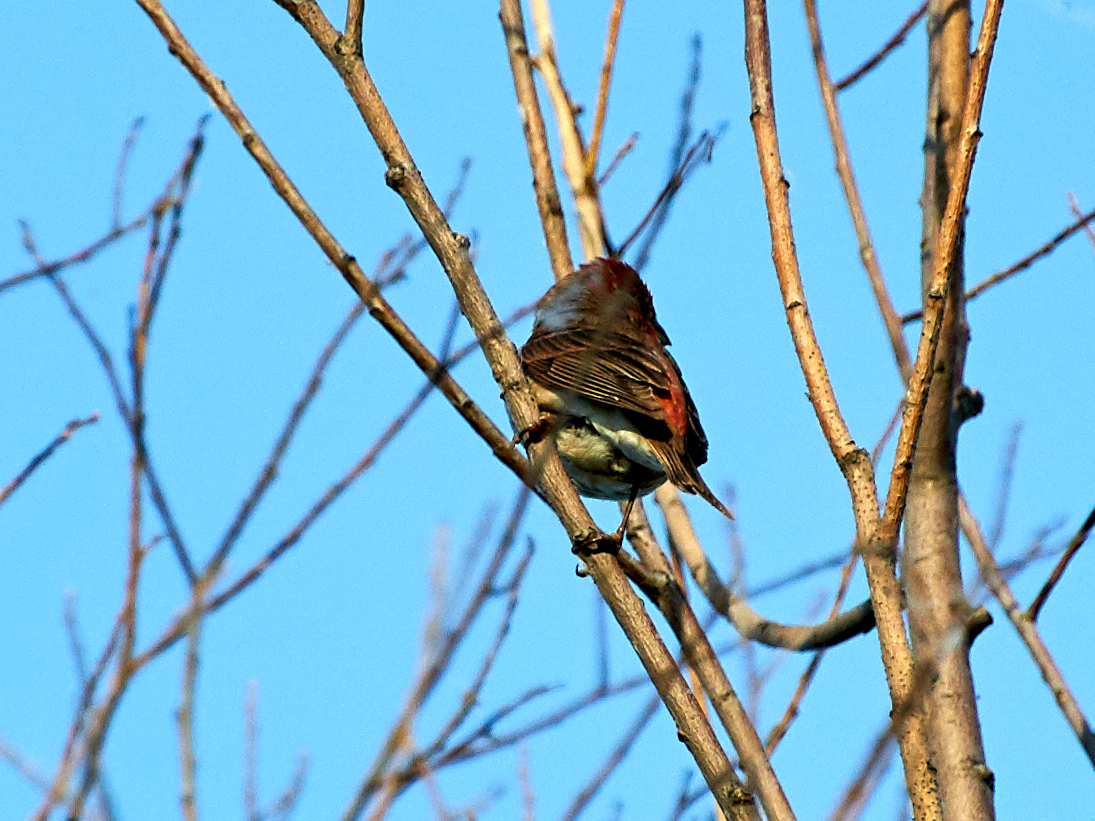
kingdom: Animalia
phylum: Chordata
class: Aves
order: Passeriformes
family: Fringillidae
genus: Carpodacus
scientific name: Carpodacus erythrinus
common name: Common rosefinch
